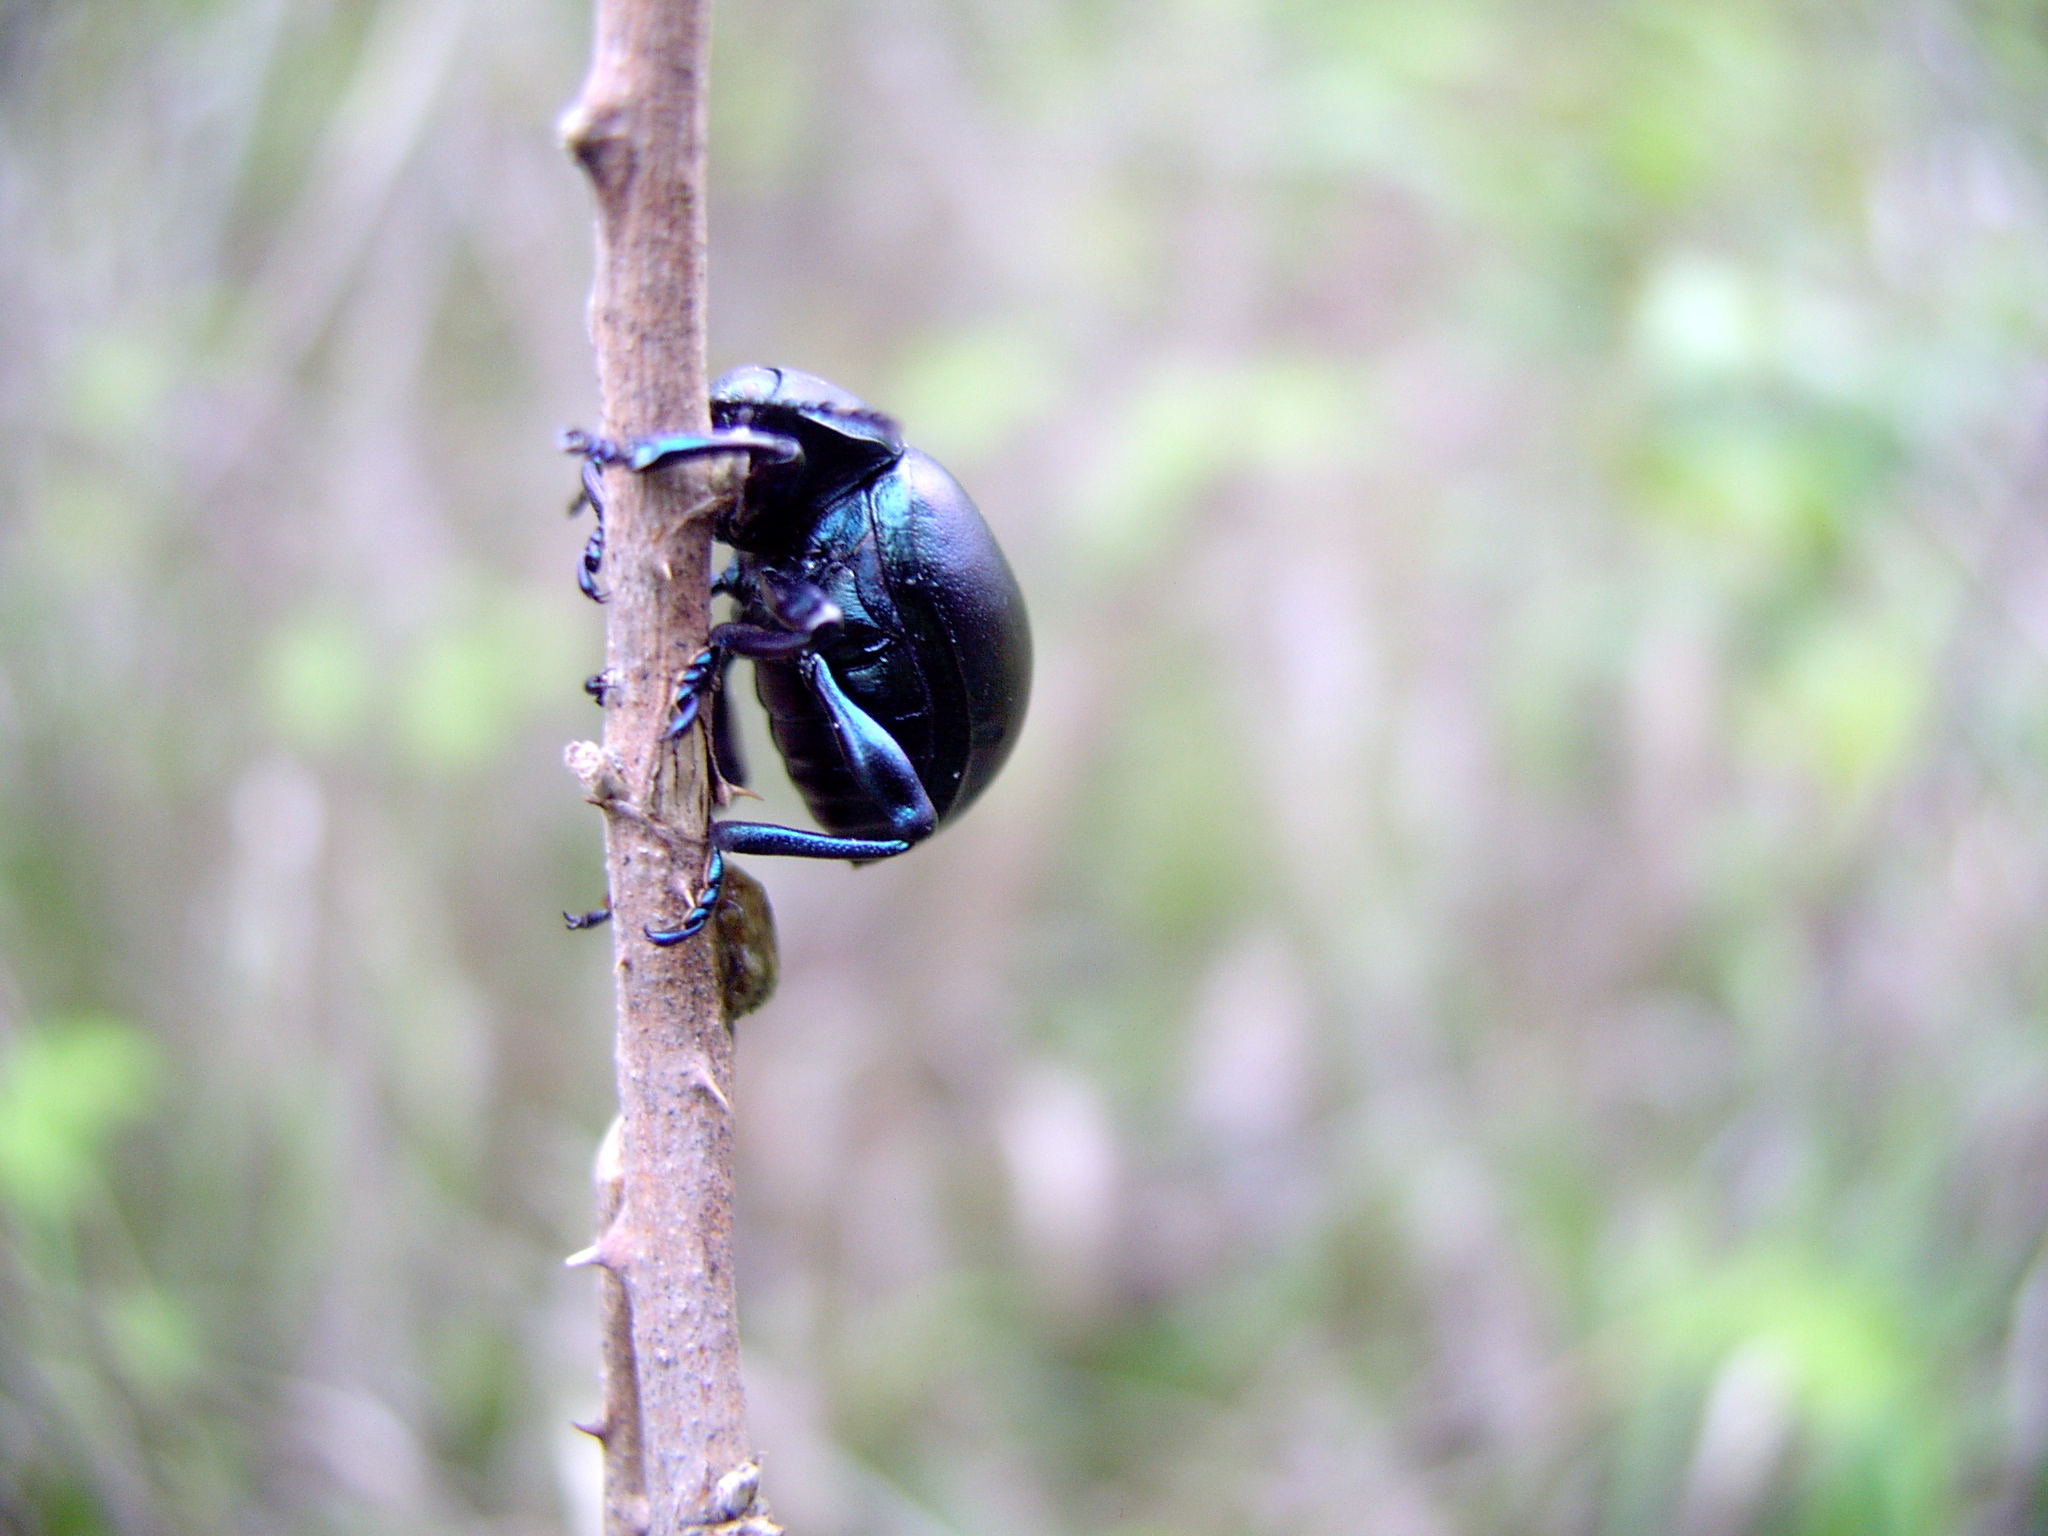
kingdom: Animalia
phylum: Arthropoda
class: Insecta
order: Coleoptera
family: Chrysomelidae
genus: Timarcha
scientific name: Timarcha nicaeensis
